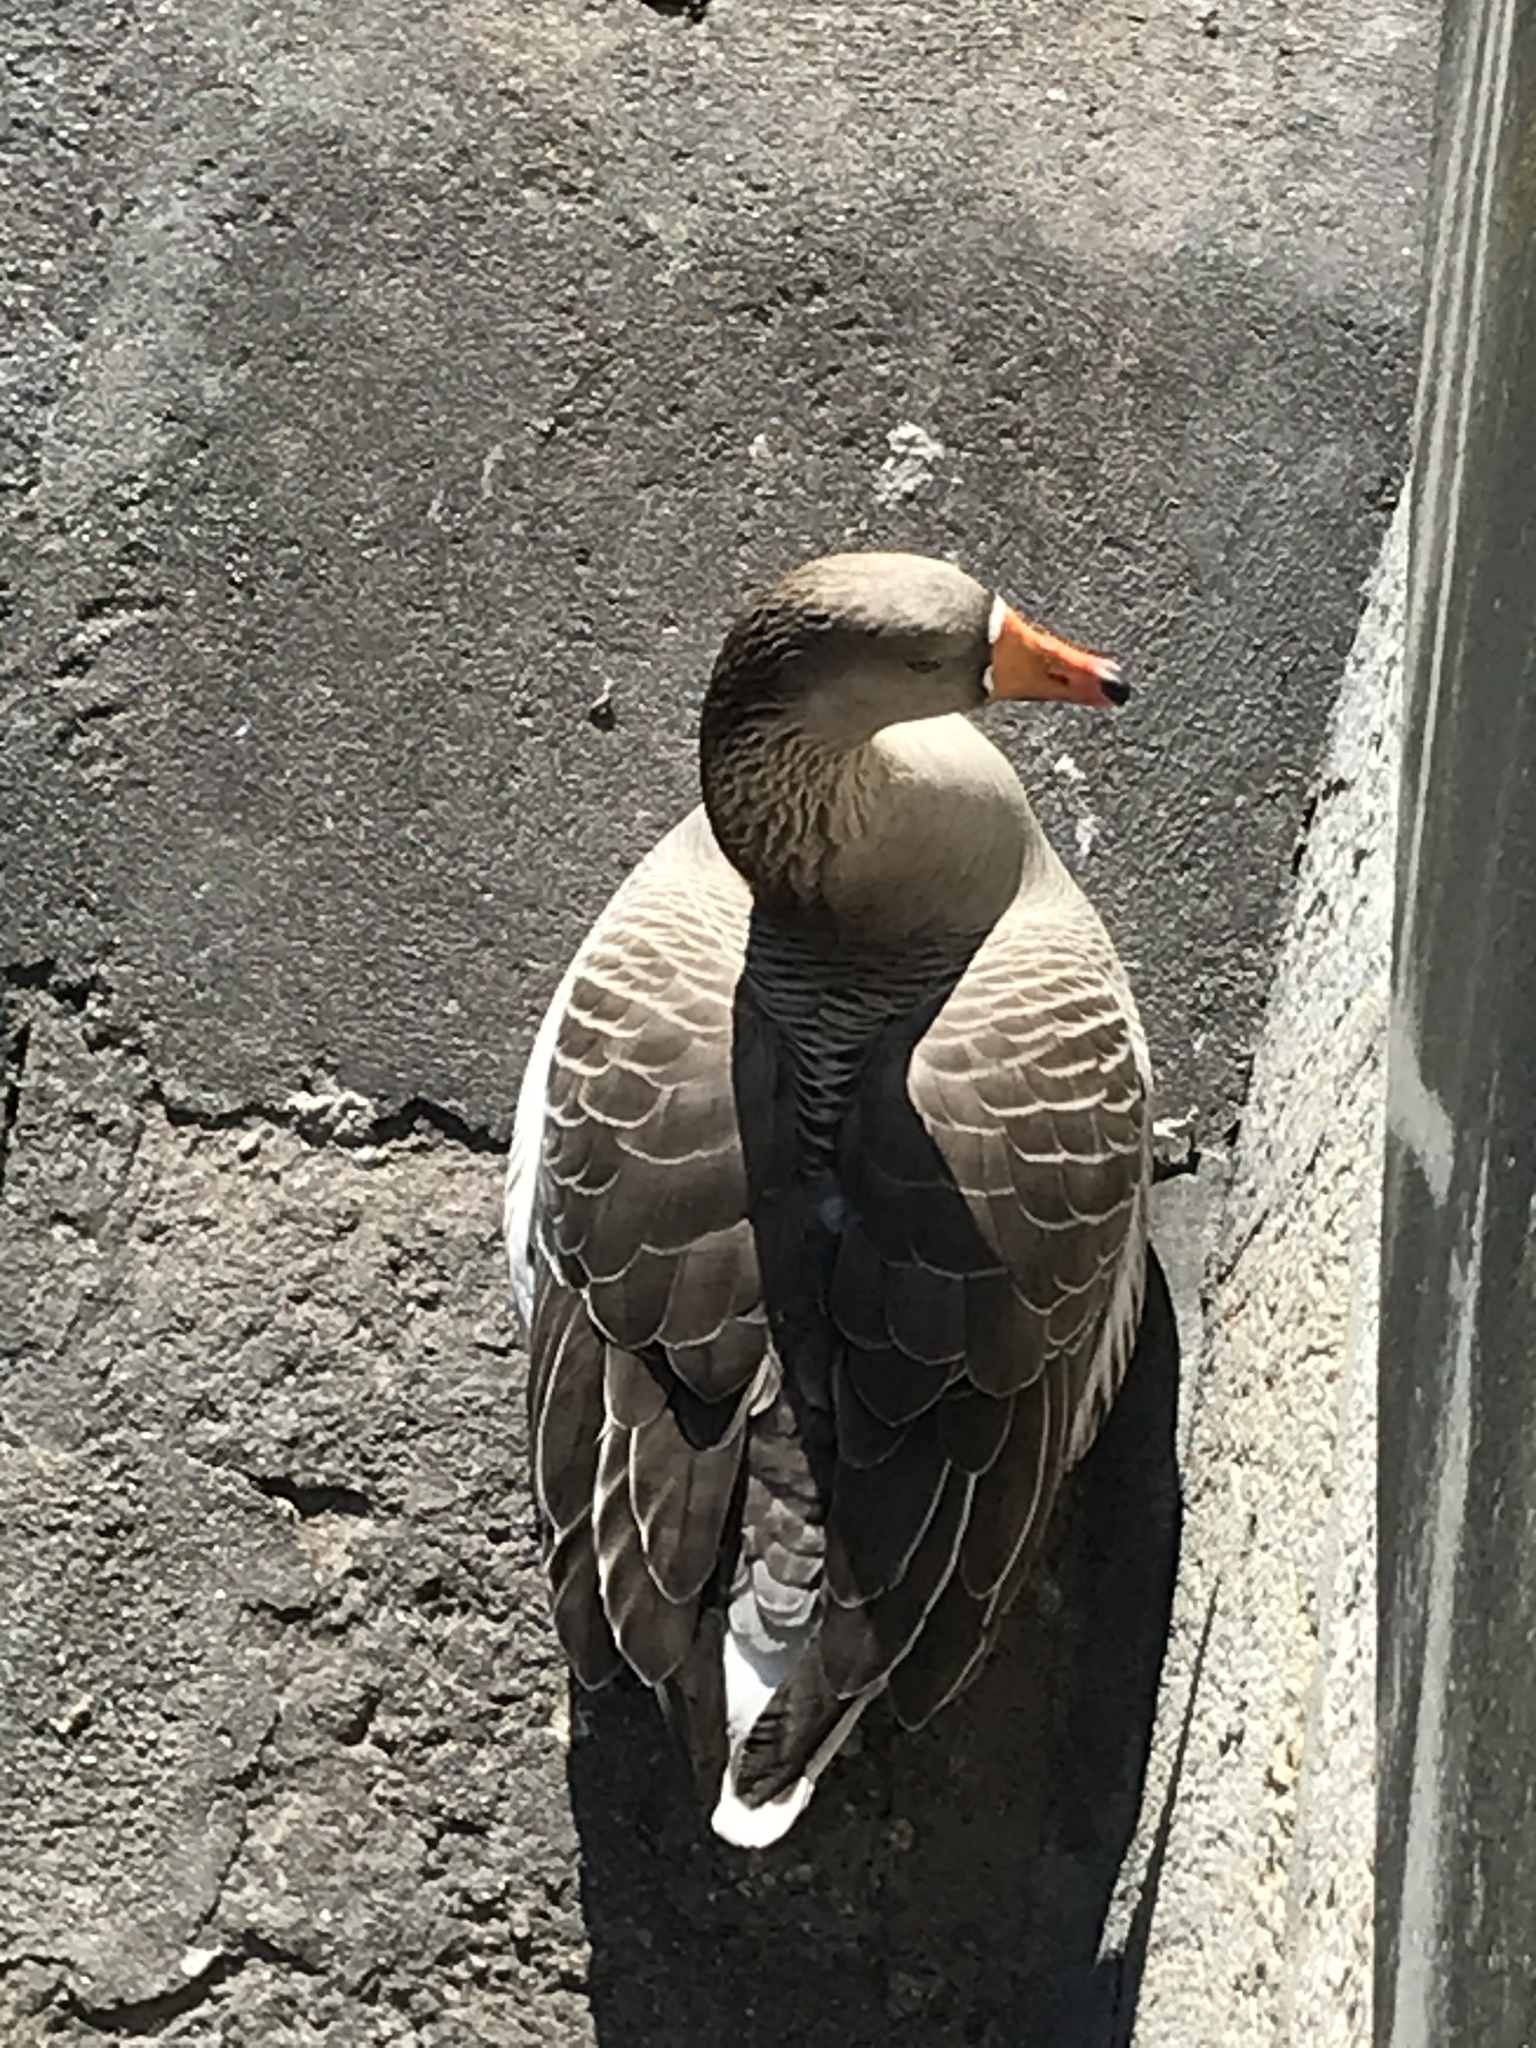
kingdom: Animalia
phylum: Chordata
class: Aves
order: Anseriformes
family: Anatidae
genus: Anser
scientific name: Anser anser
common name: Greylag goose
